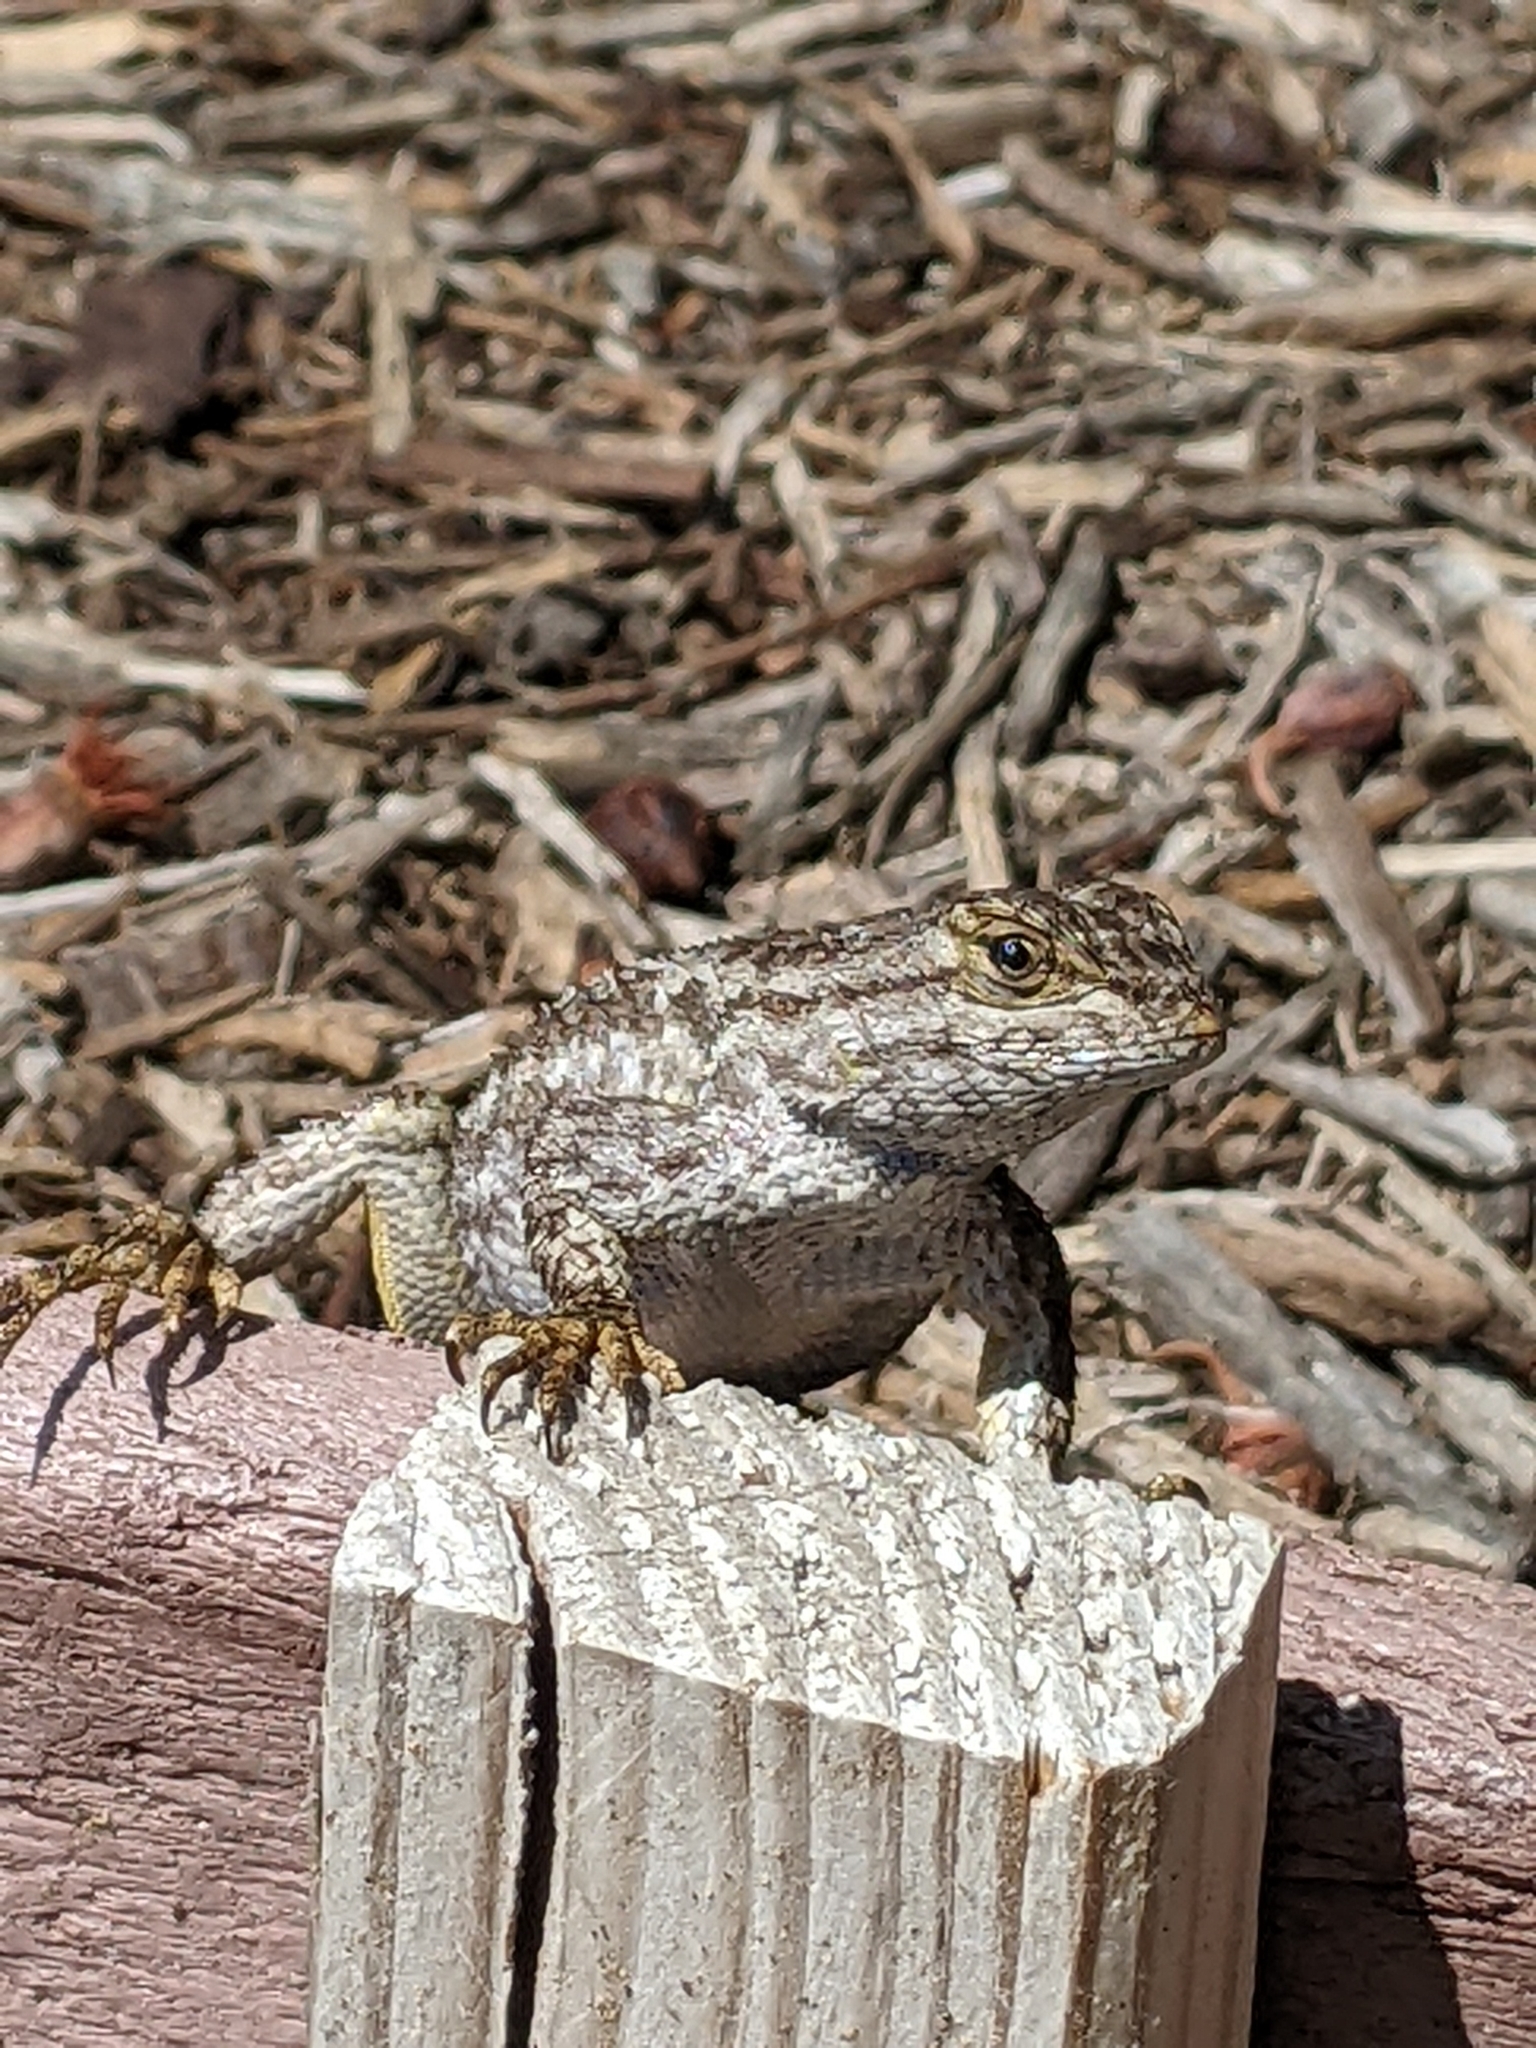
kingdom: Animalia
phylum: Chordata
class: Squamata
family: Phrynosomatidae
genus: Sceloporus
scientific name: Sceloporus occidentalis
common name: Western fence lizard
